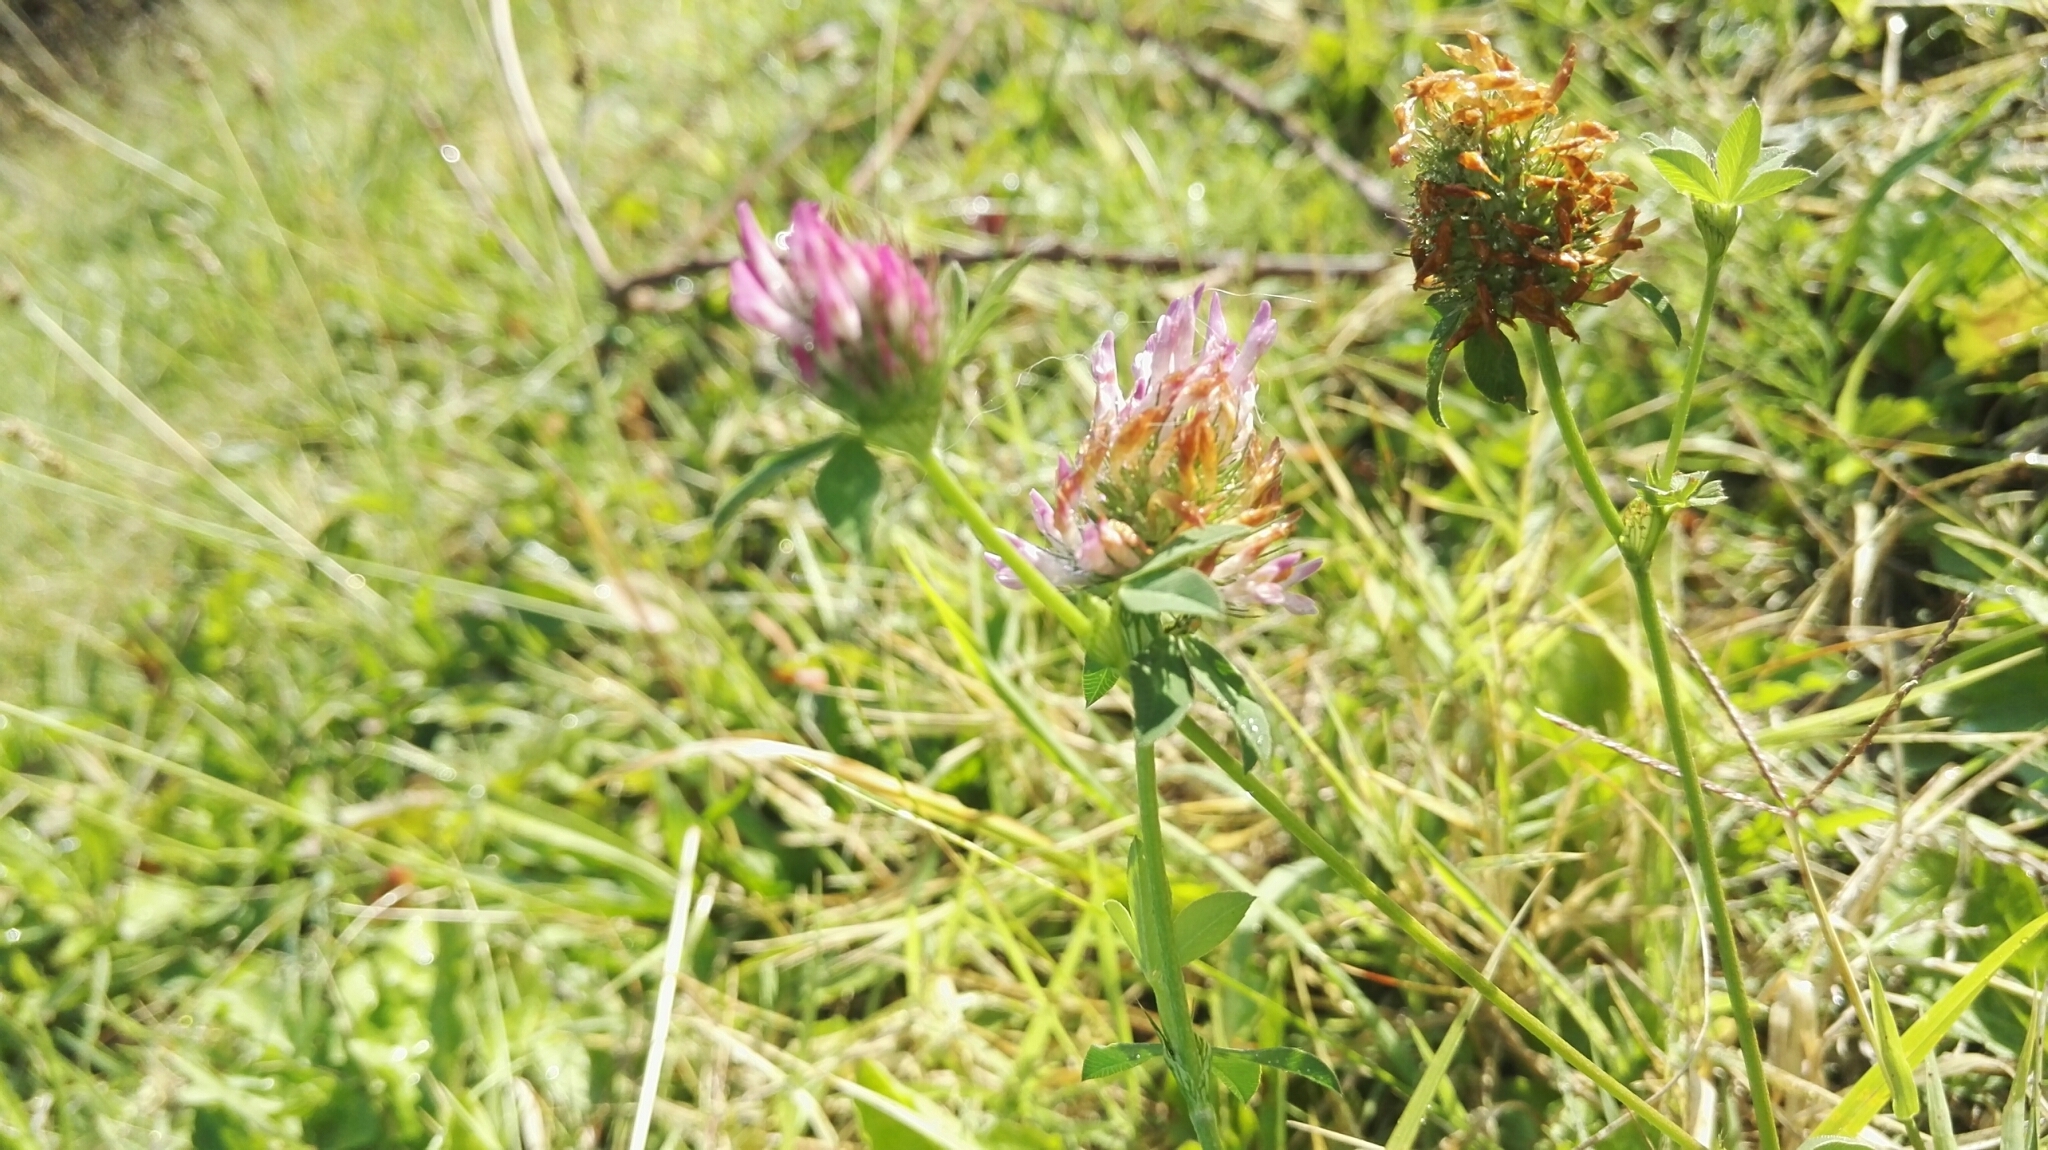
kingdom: Plantae
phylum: Tracheophyta
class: Magnoliopsida
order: Fabales
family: Fabaceae
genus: Trifolium
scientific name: Trifolium pratense
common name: Red clover
